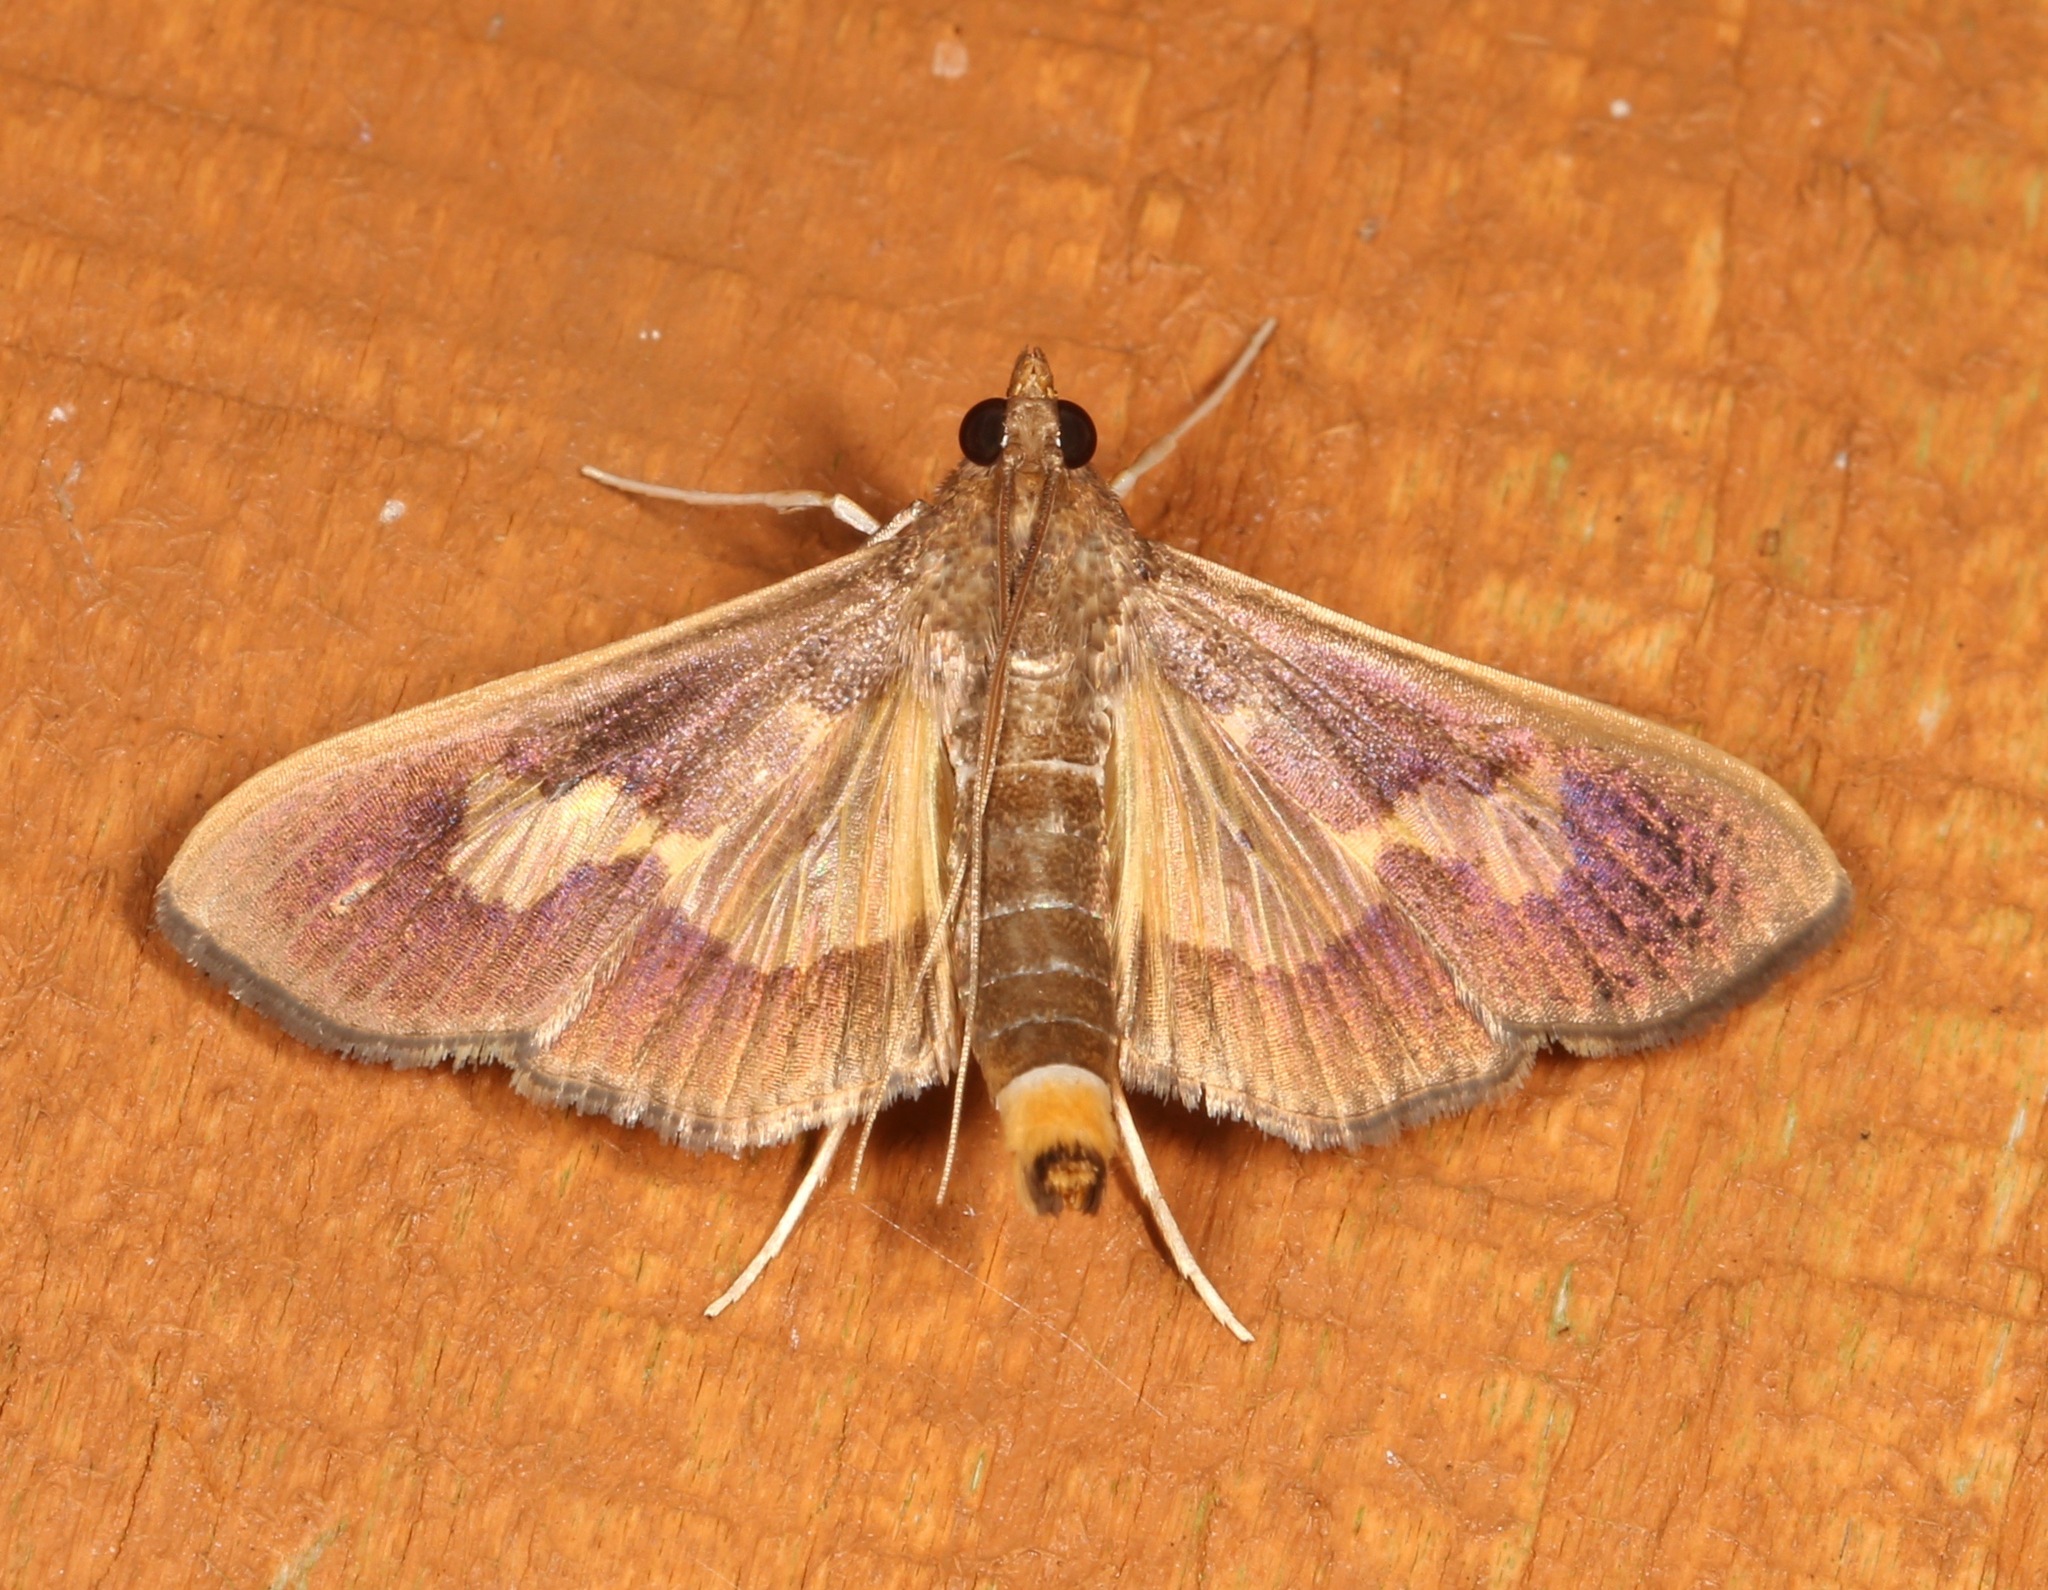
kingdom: Animalia
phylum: Arthropoda
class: Insecta
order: Lepidoptera
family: Crambidae
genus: Cryptographis
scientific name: Cryptographis nitidalis
